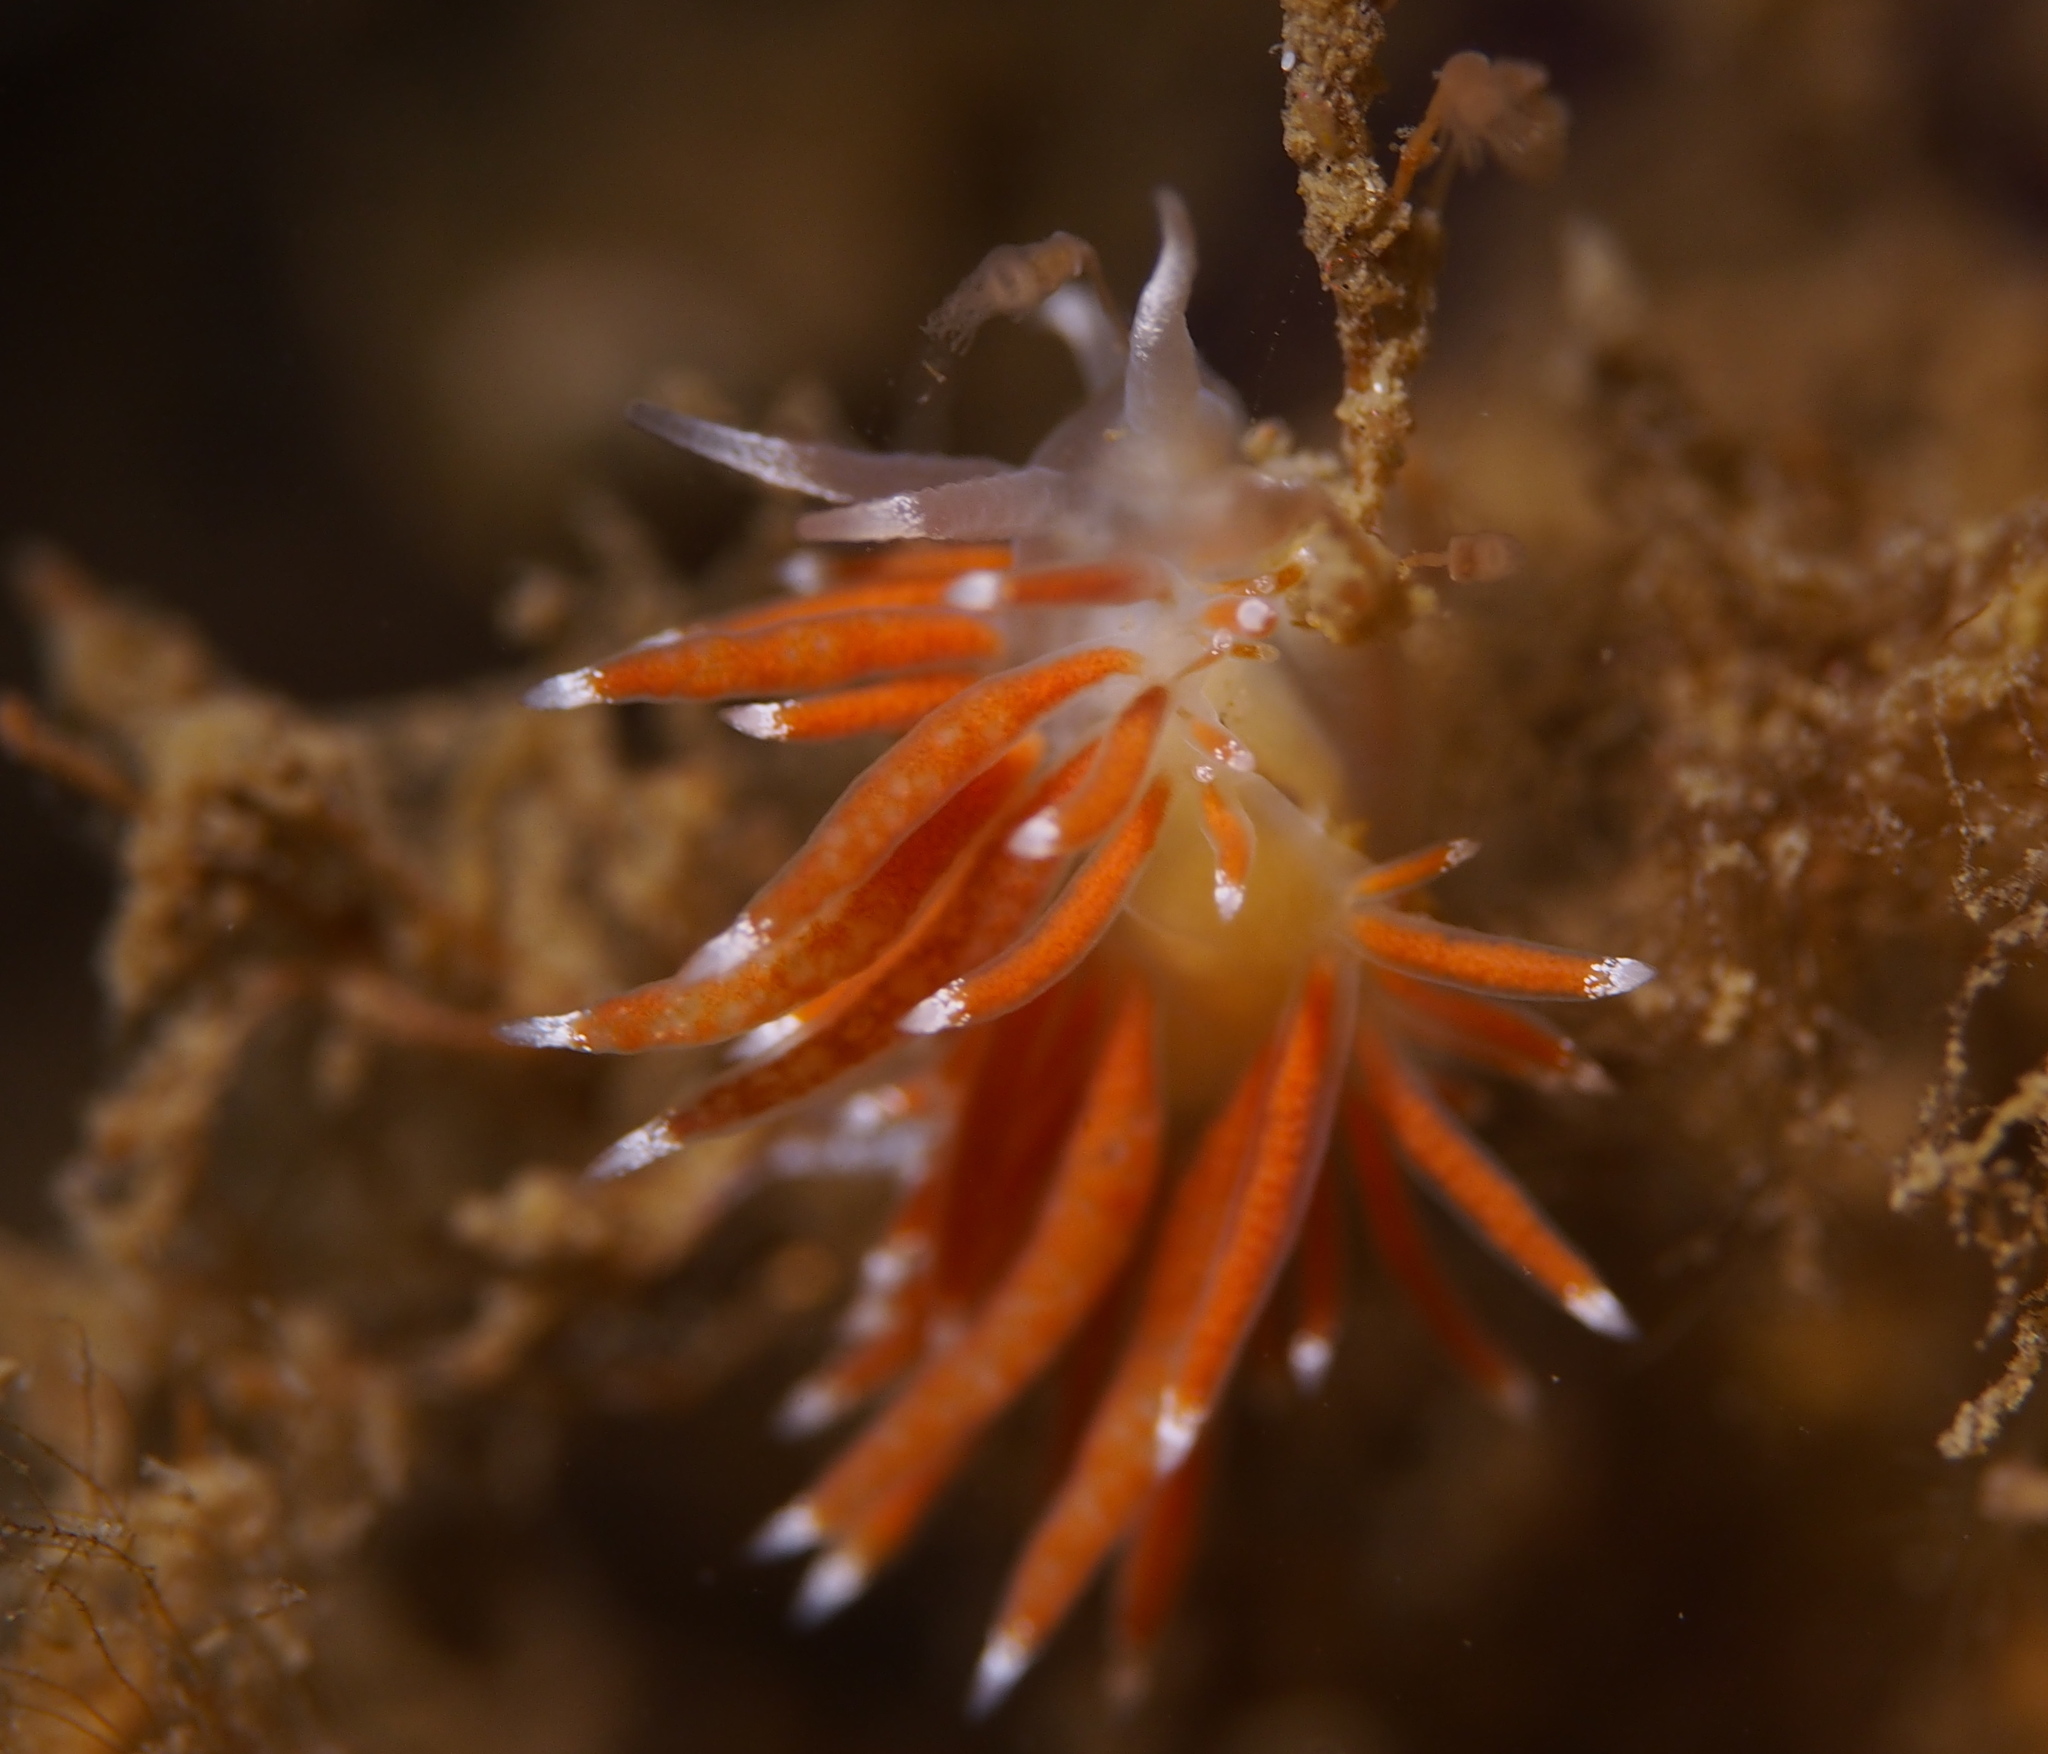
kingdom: Animalia
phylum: Mollusca
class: Gastropoda
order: Nudibranchia
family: Coryphellidae
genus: Coryphella
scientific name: Coryphella gracilis
